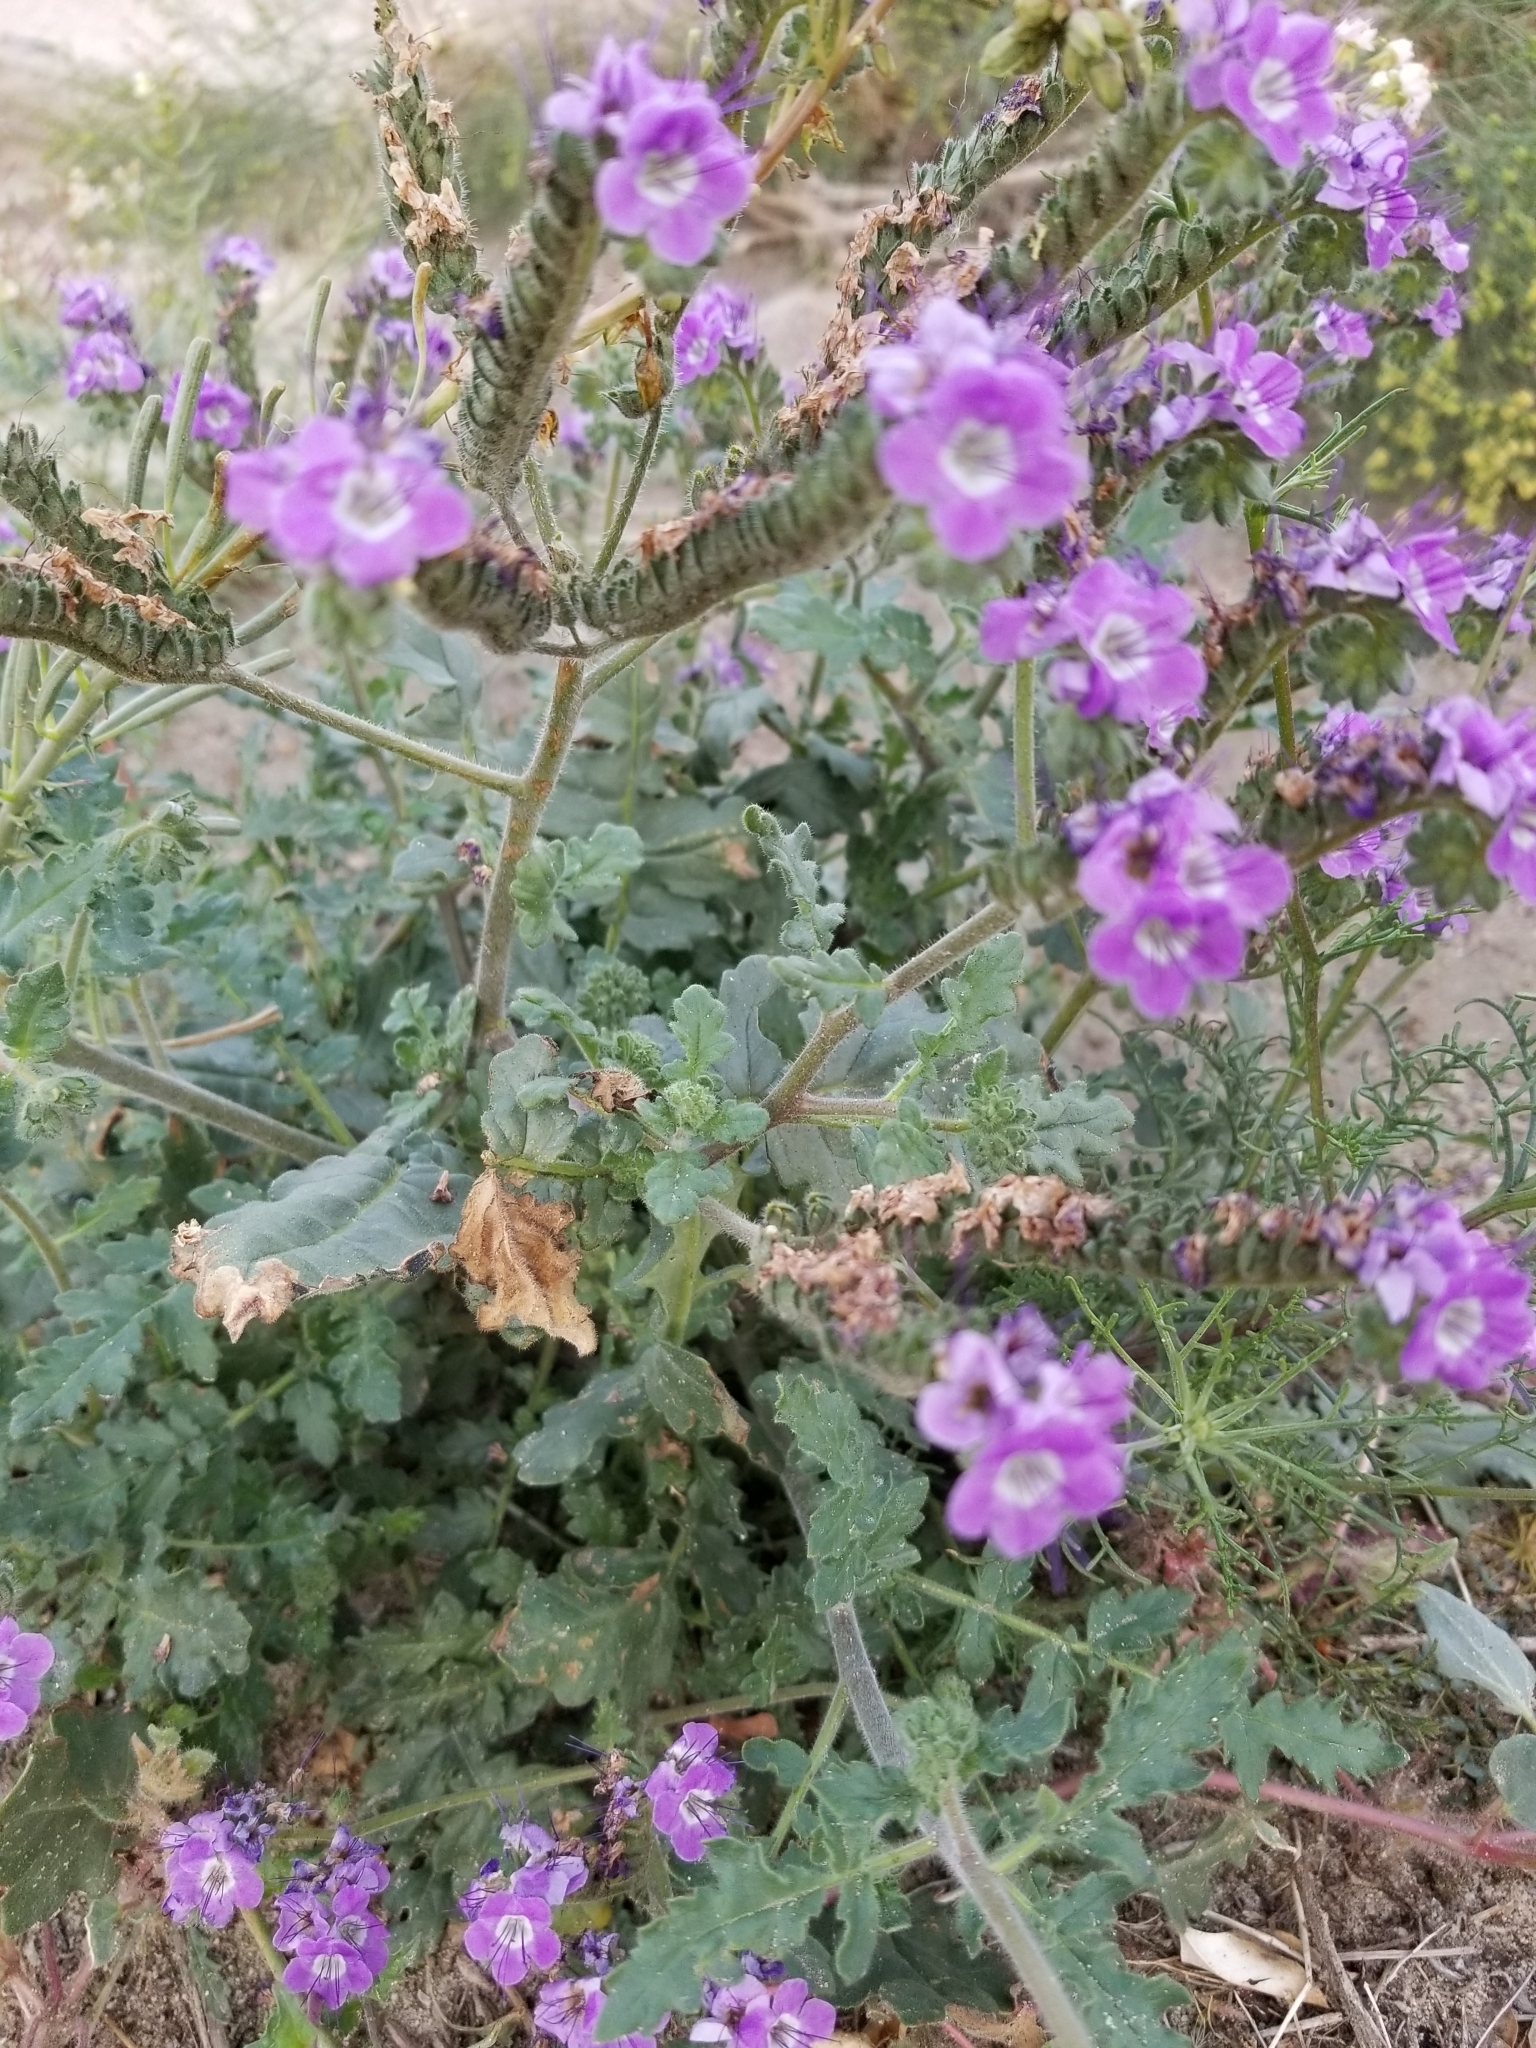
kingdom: Plantae
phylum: Tracheophyta
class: Magnoliopsida
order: Boraginales
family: Hydrophyllaceae
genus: Phacelia
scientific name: Phacelia crenulata
